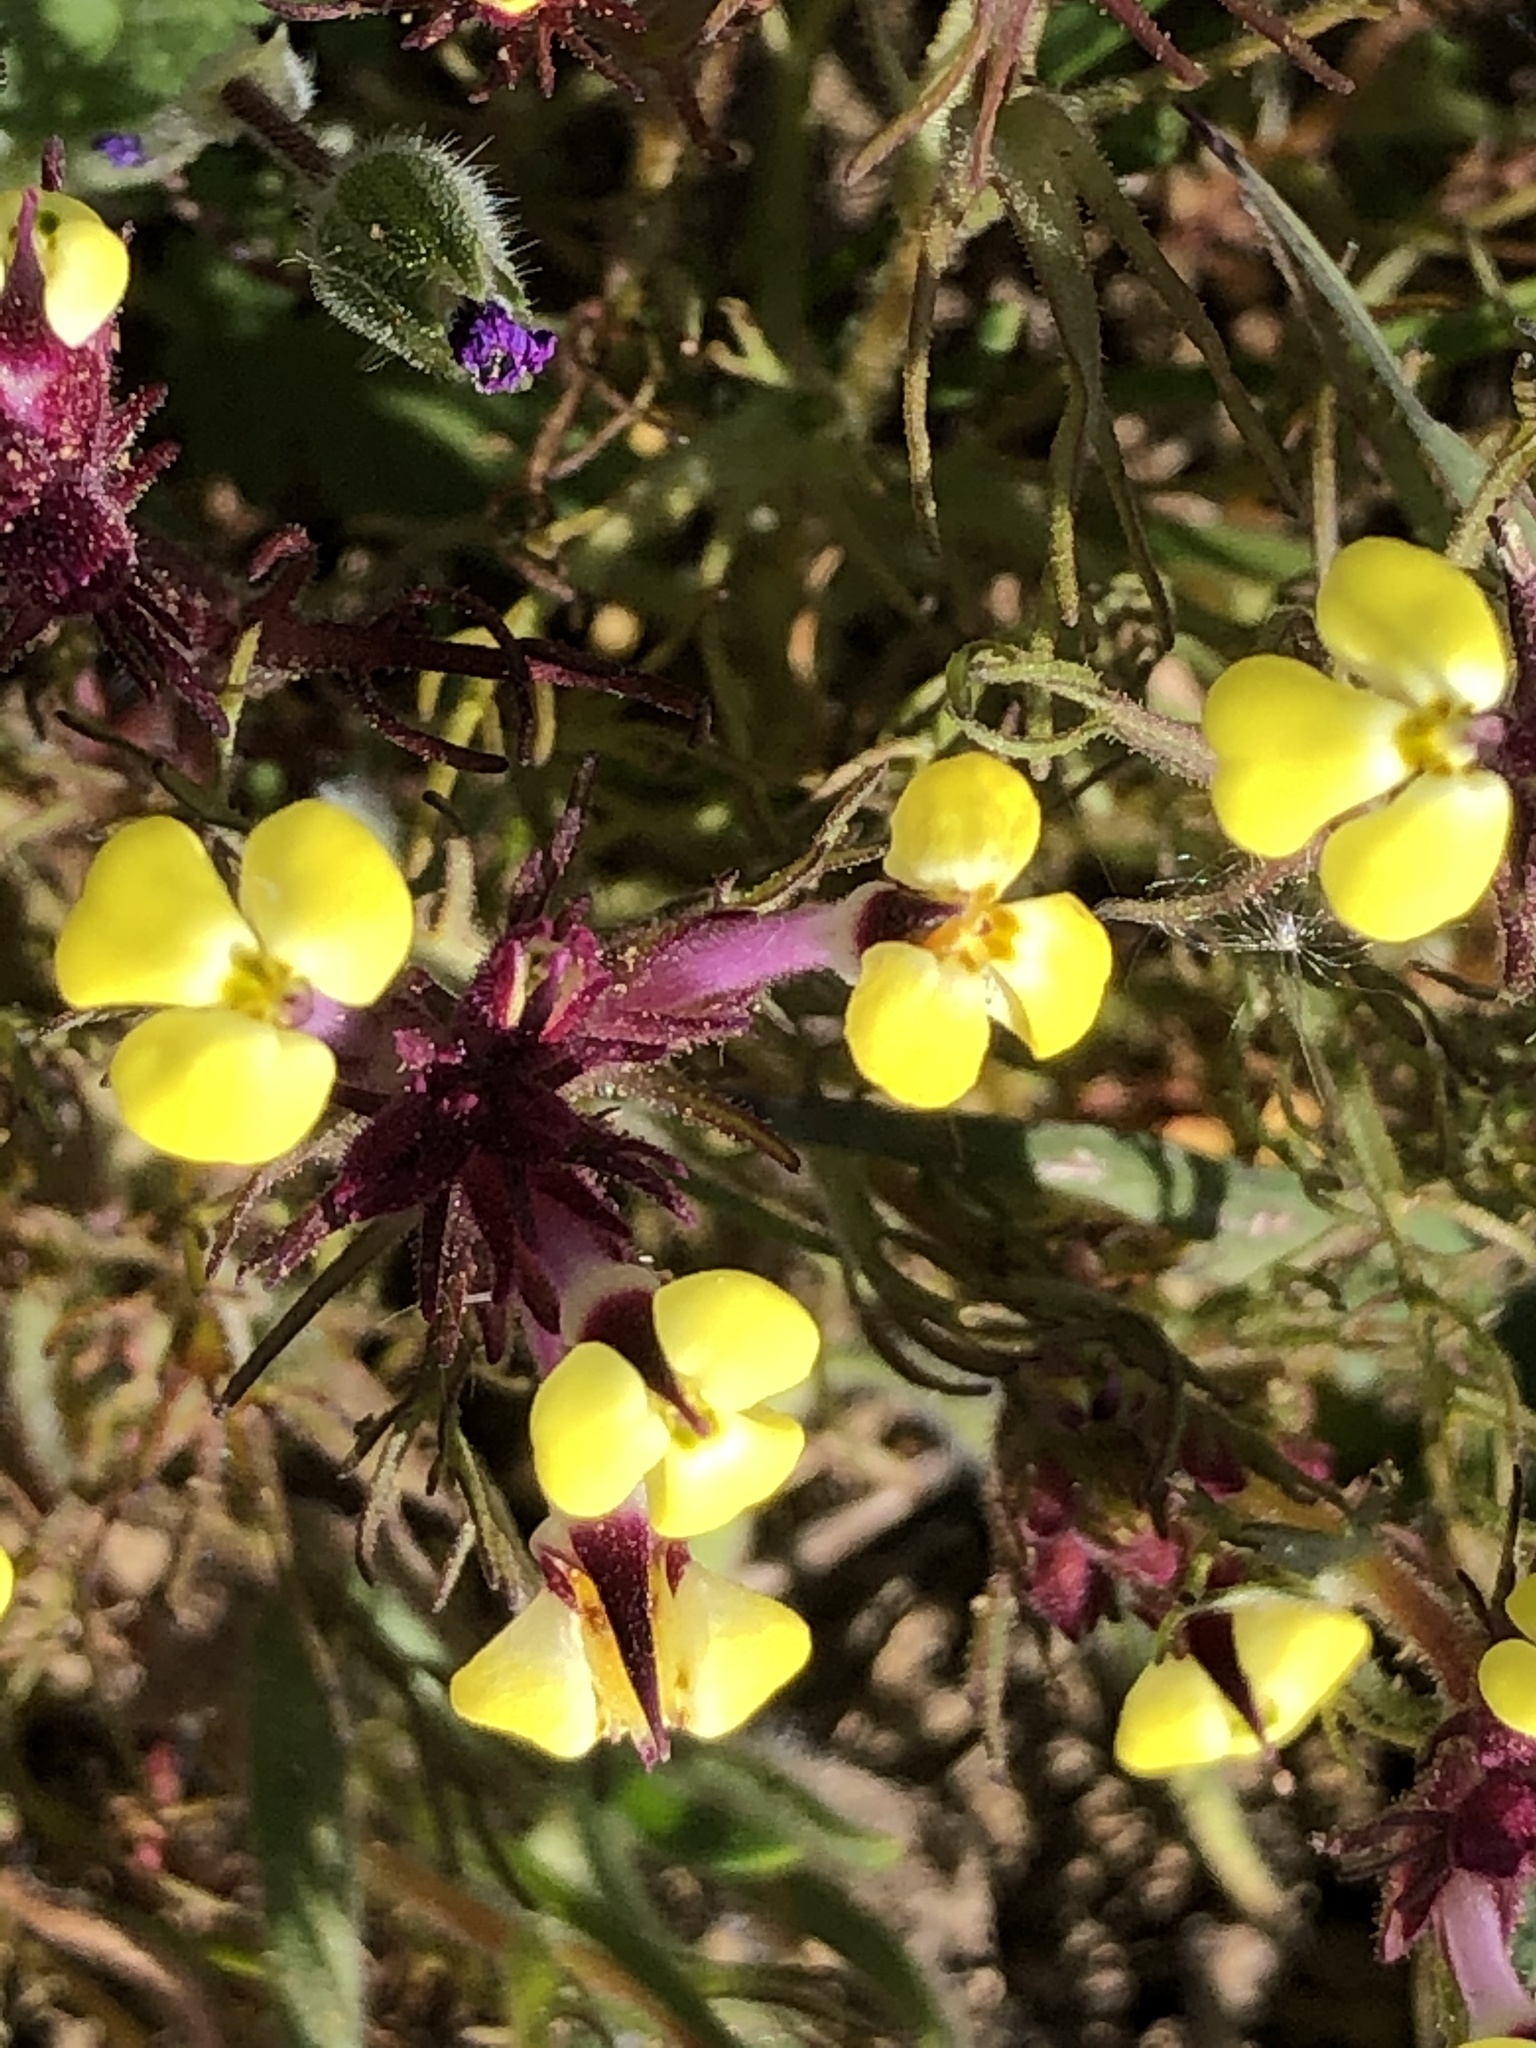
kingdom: Plantae
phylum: Tracheophyta
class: Magnoliopsida
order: Lamiales
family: Orobanchaceae
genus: Triphysaria
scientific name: Triphysaria eriantha
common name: Johnny-tuck
